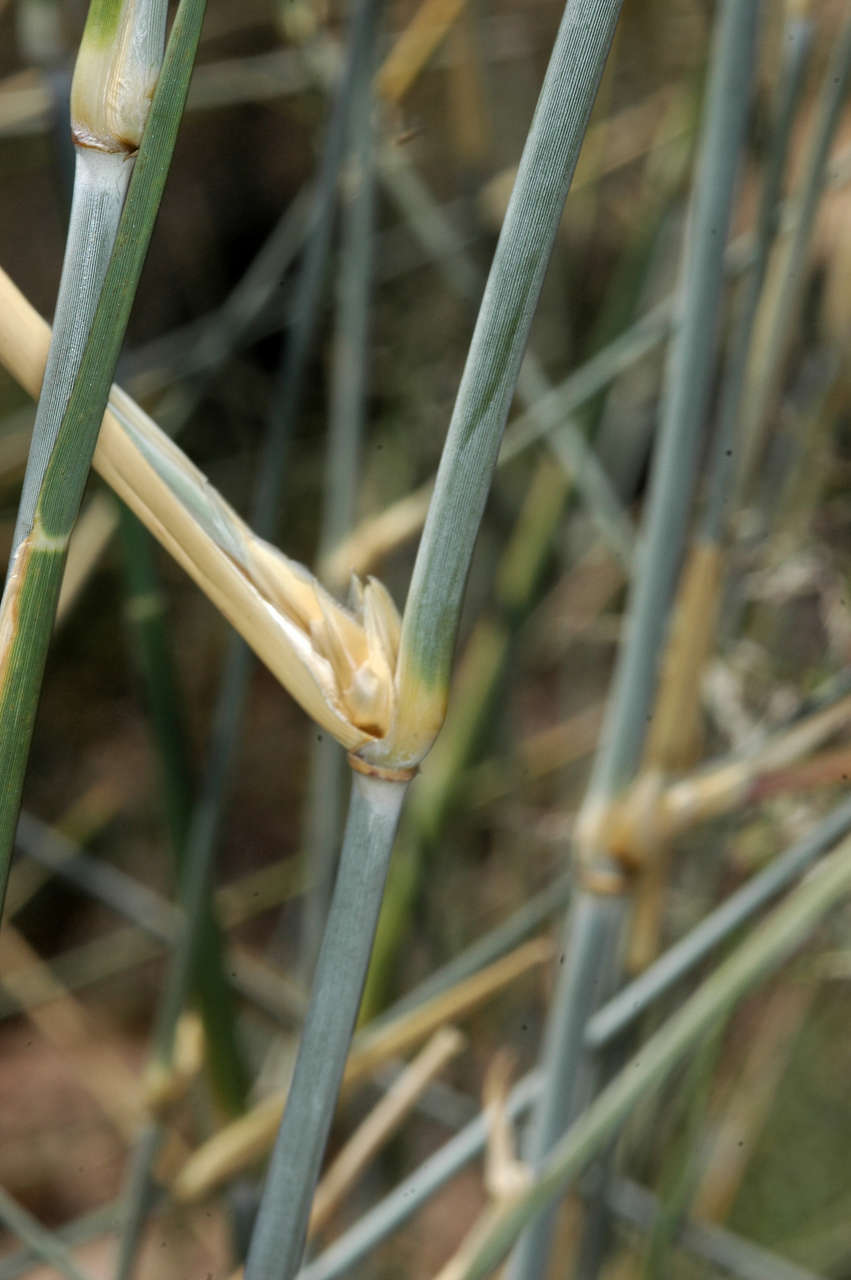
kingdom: Plantae
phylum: Tracheophyta
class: Liliopsida
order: Poales
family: Poaceae
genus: Sporobolus
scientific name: Sporobolus ramigerus
